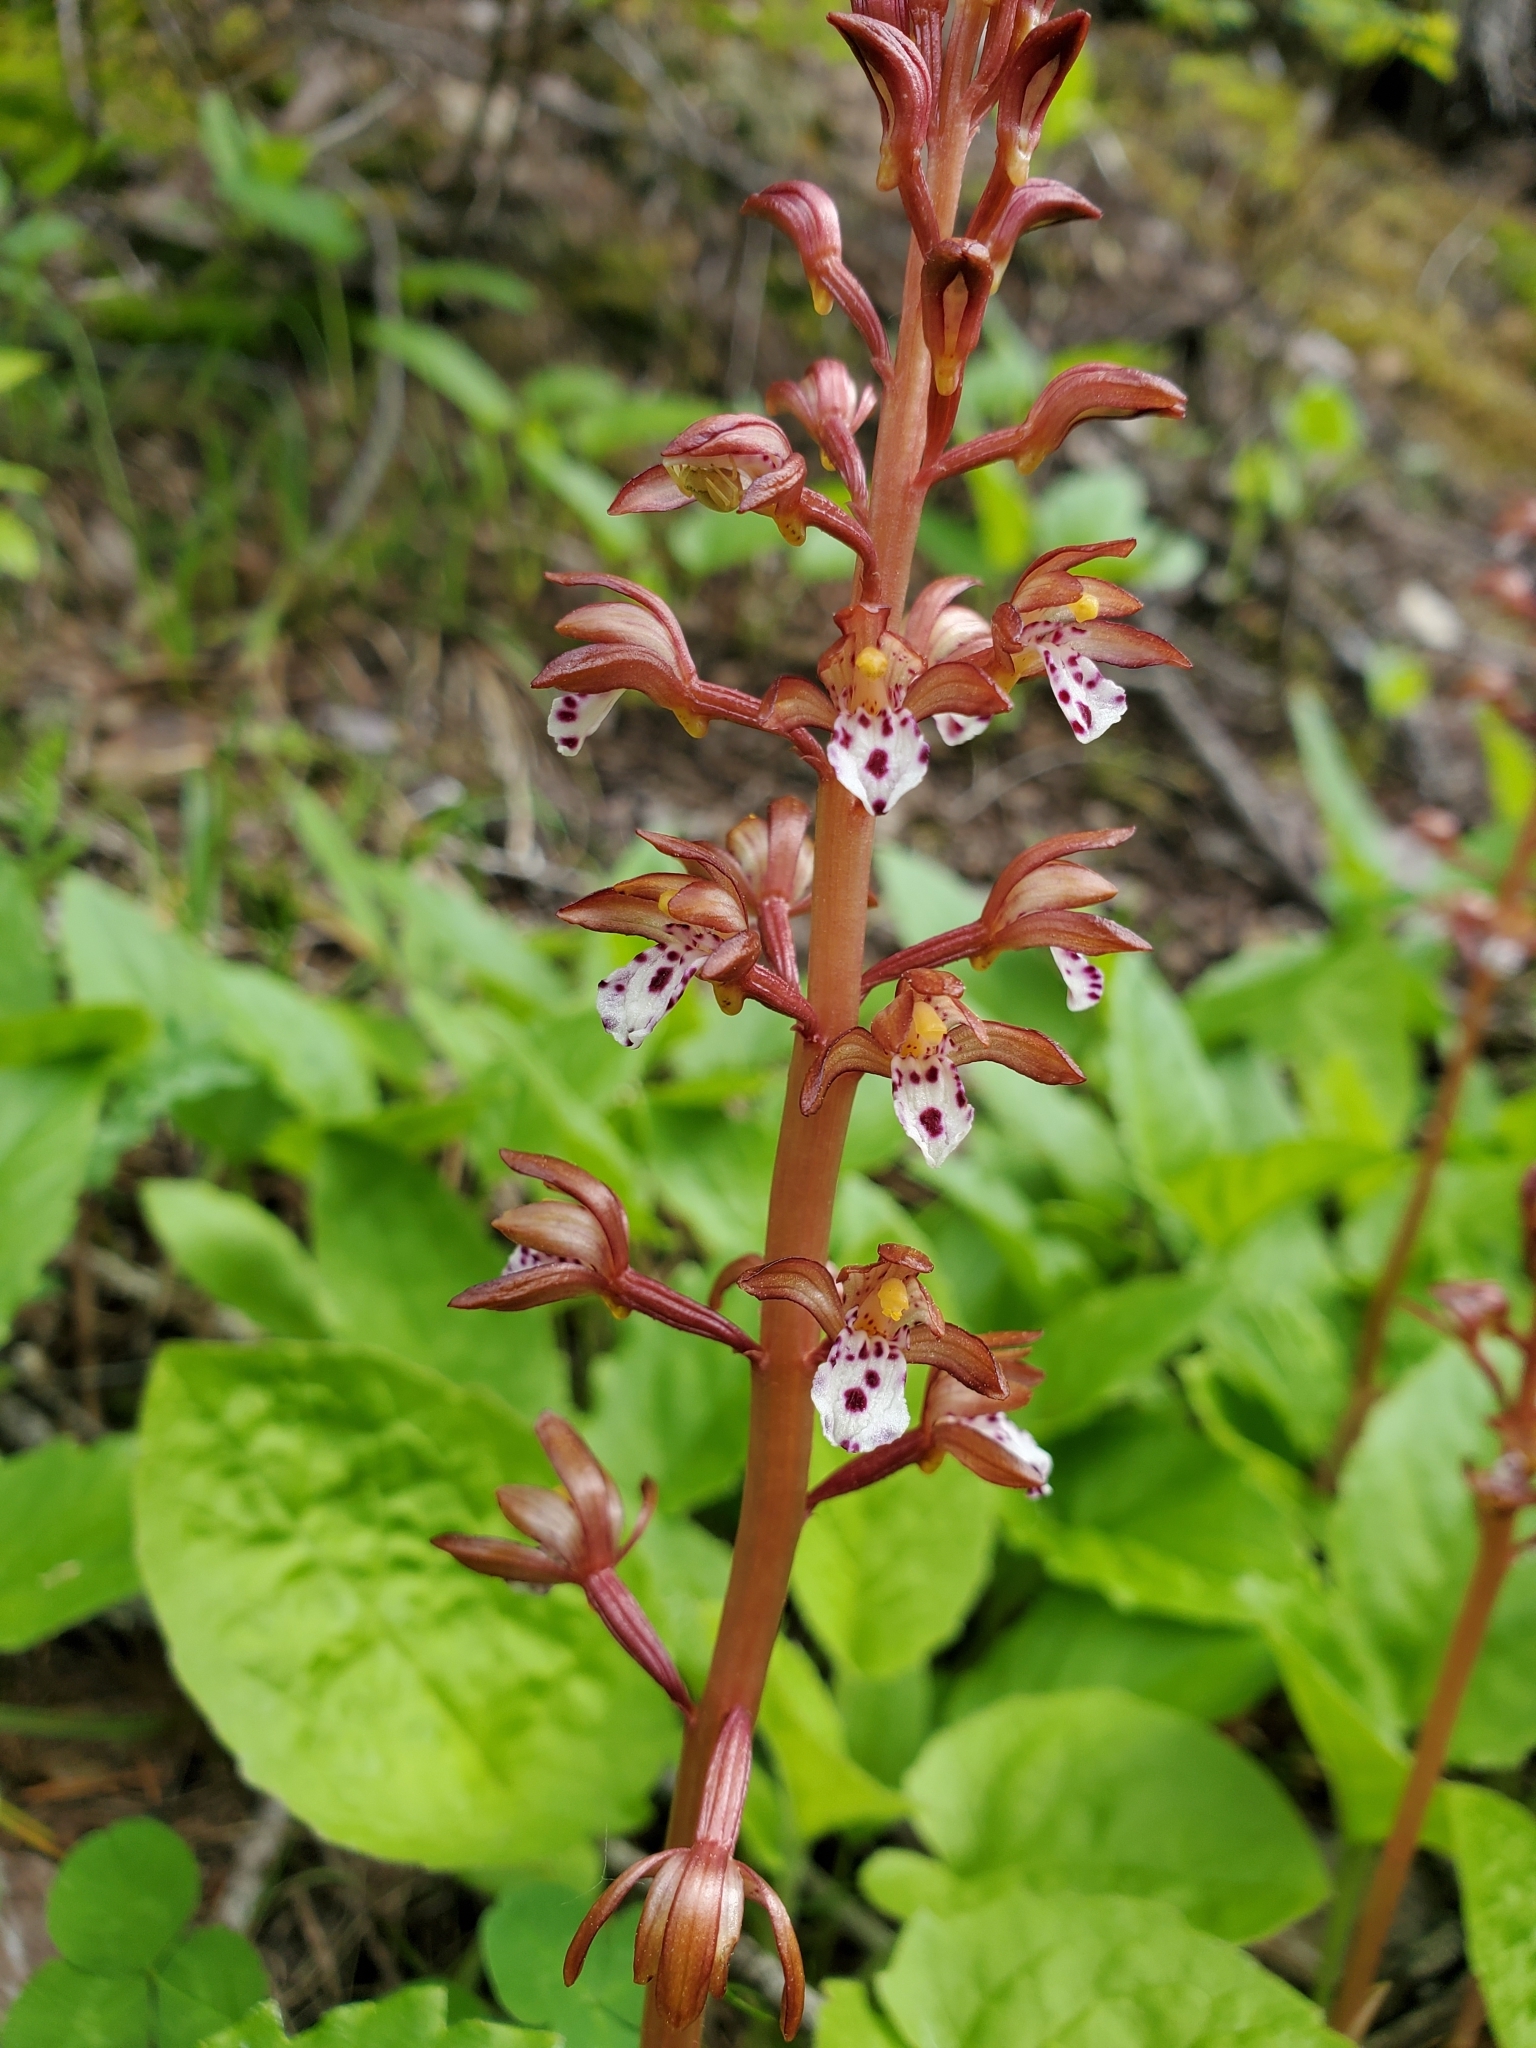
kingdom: Plantae
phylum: Tracheophyta
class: Liliopsida
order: Asparagales
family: Orchidaceae
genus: Corallorhiza
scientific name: Corallorhiza maculata
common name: Spotted coralroot
